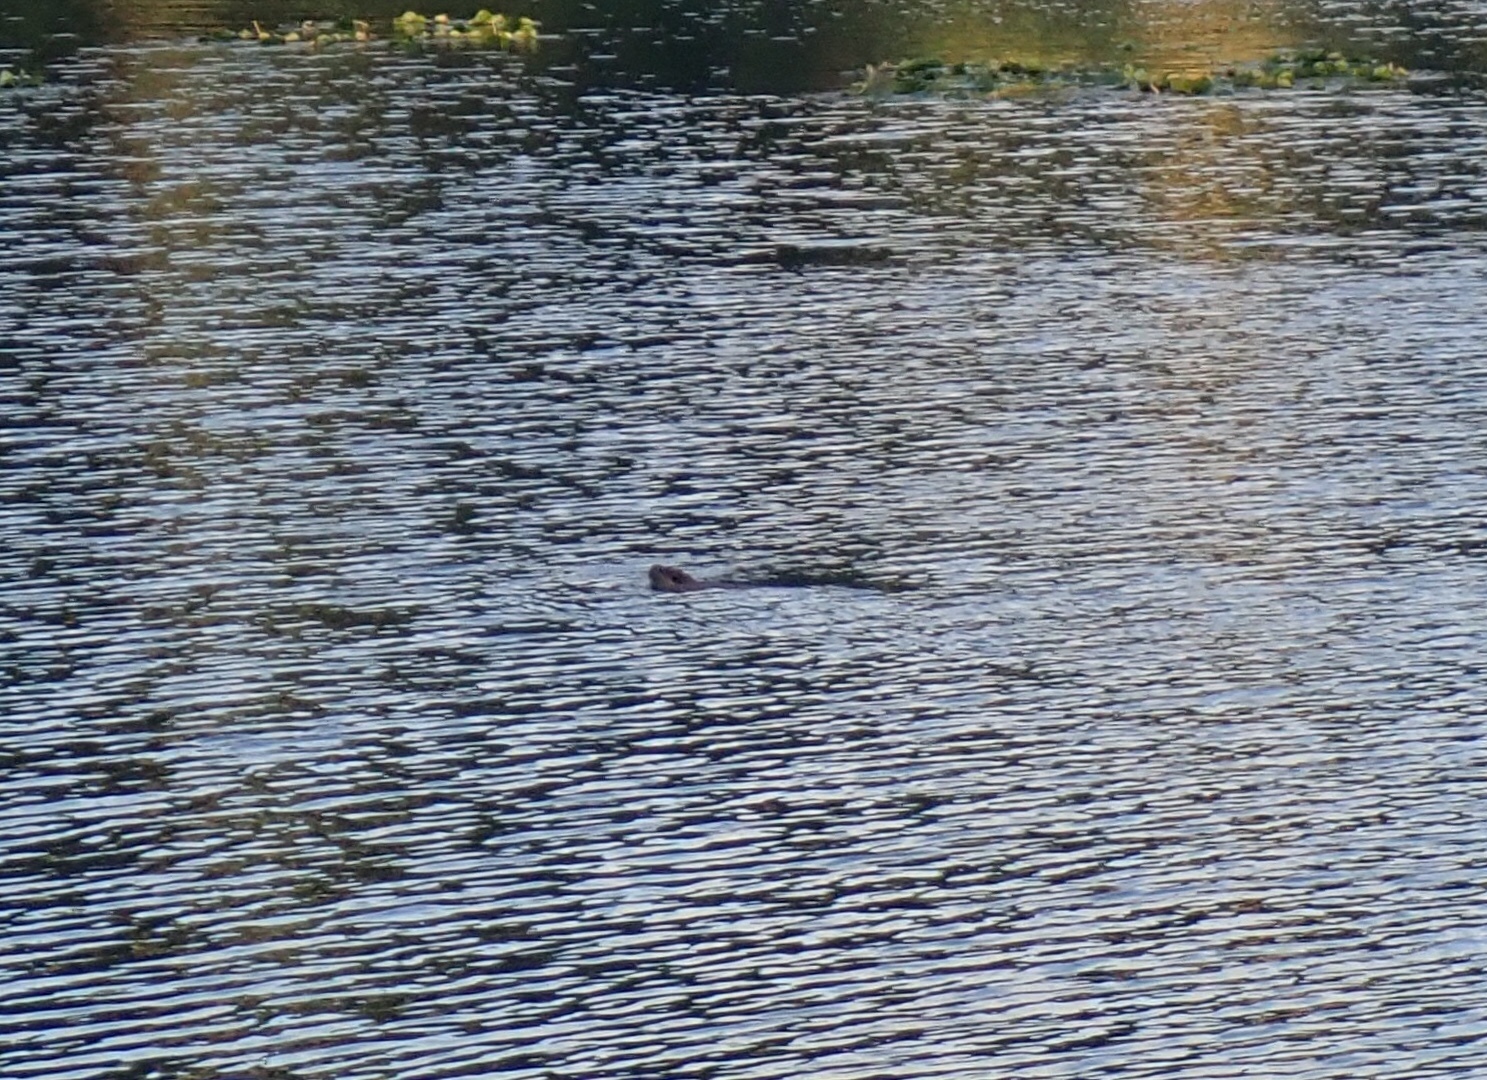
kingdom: Animalia
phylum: Chordata
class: Mammalia
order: Rodentia
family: Castoridae
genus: Castor
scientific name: Castor canadensis
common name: American beaver
